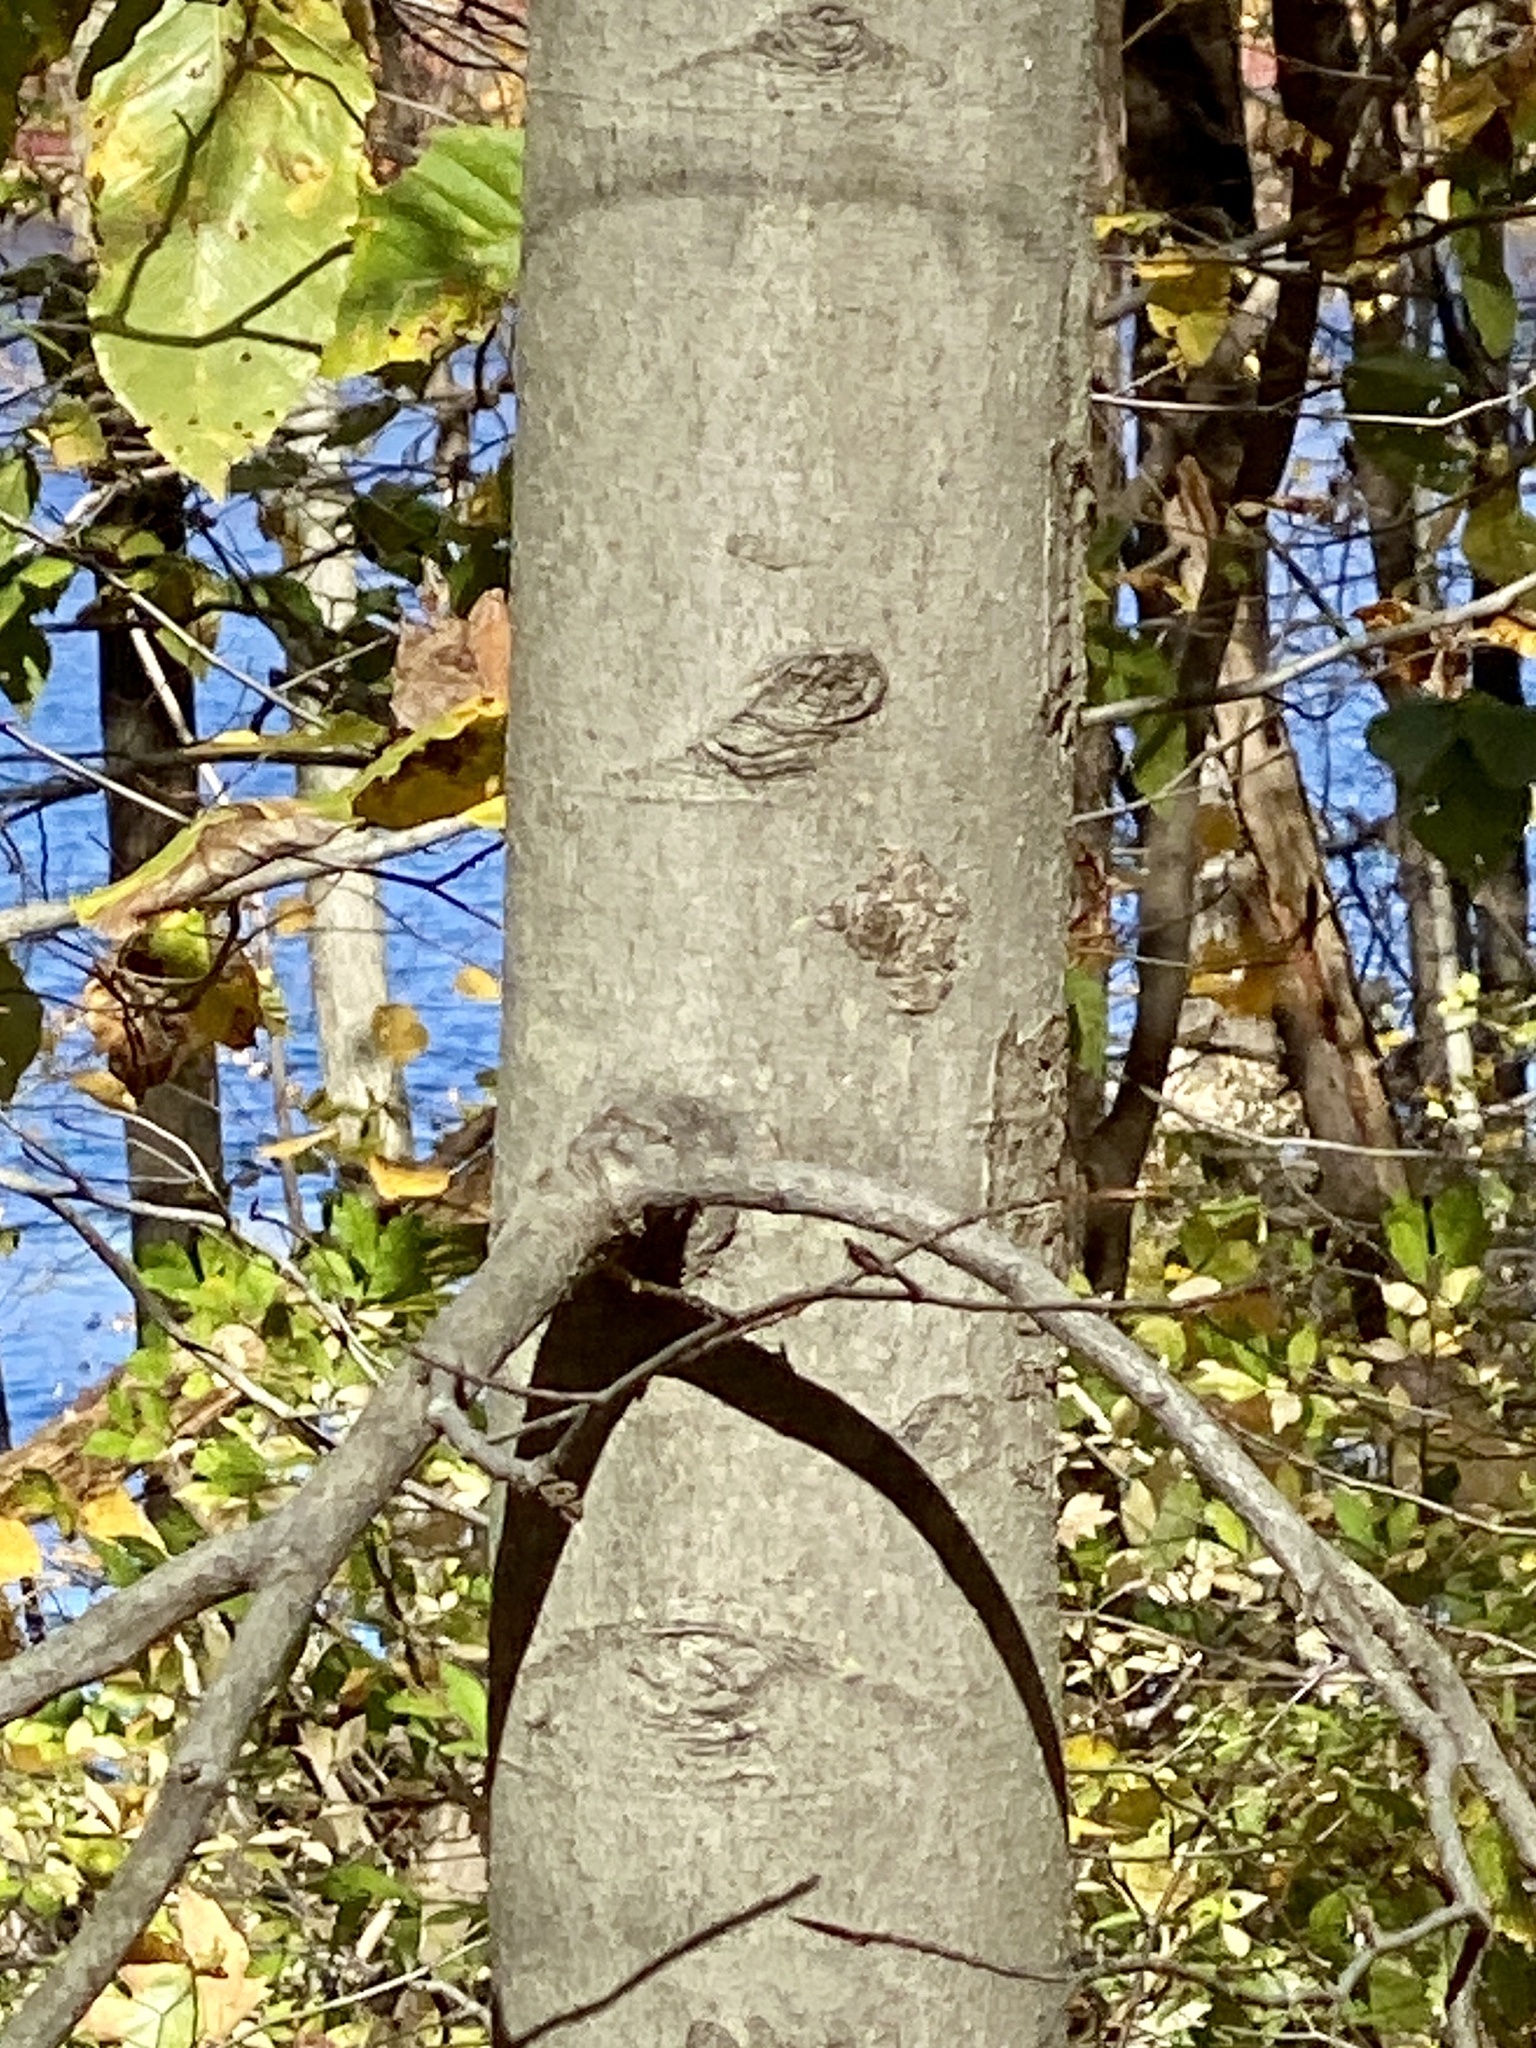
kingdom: Plantae
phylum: Tracheophyta
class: Magnoliopsida
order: Fagales
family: Fagaceae
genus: Fagus
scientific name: Fagus grandifolia
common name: American beech
